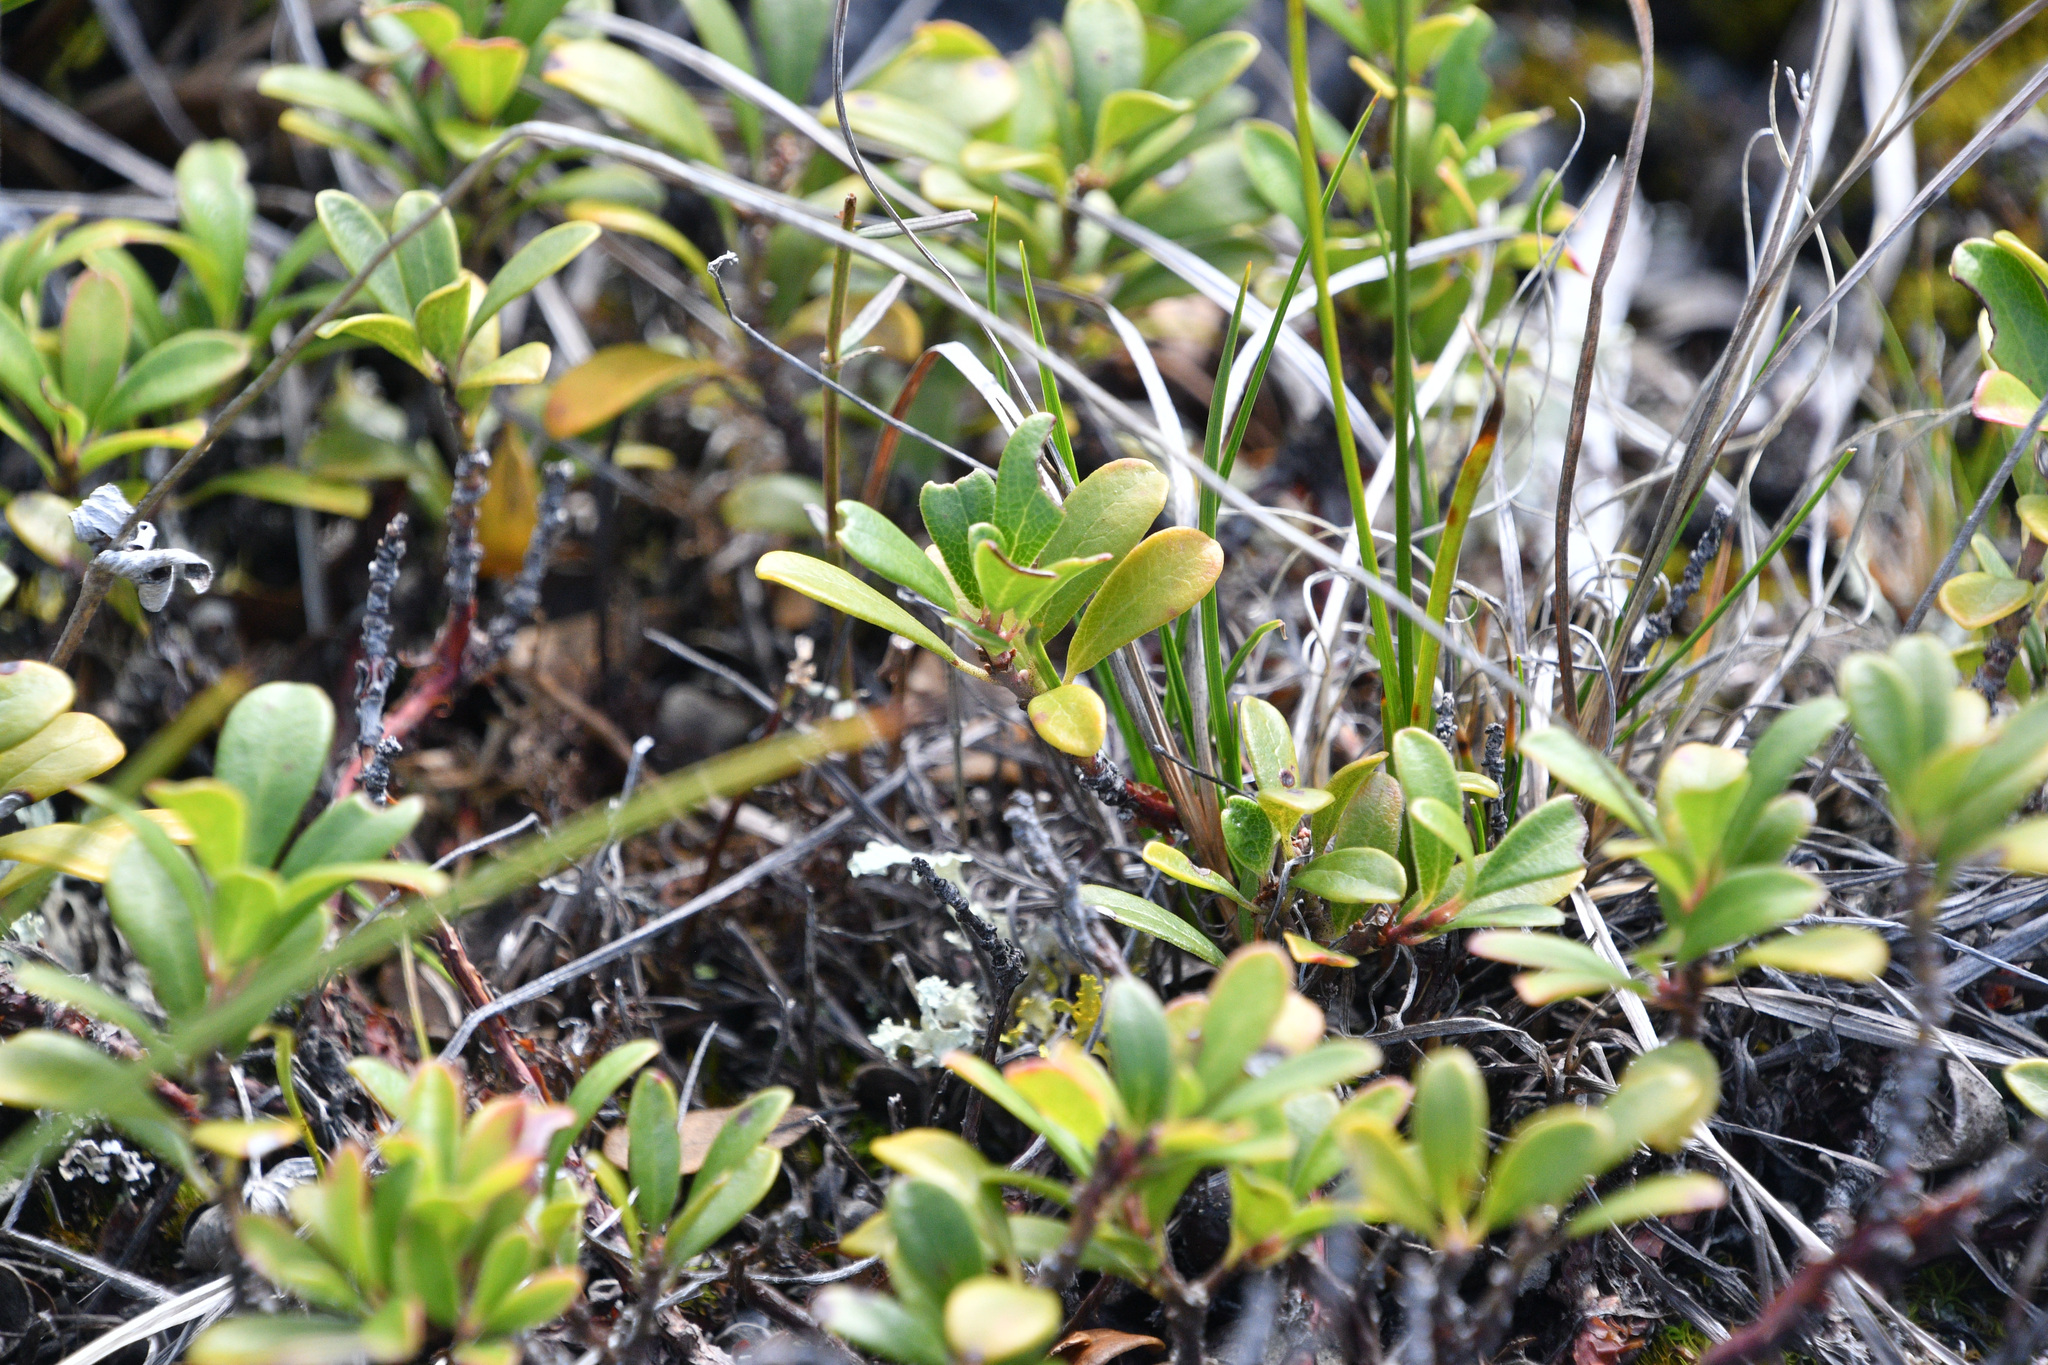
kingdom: Plantae
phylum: Tracheophyta
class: Magnoliopsida
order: Ericales
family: Ericaceae
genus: Arctostaphylos
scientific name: Arctostaphylos uva-ursi
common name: Bearberry
